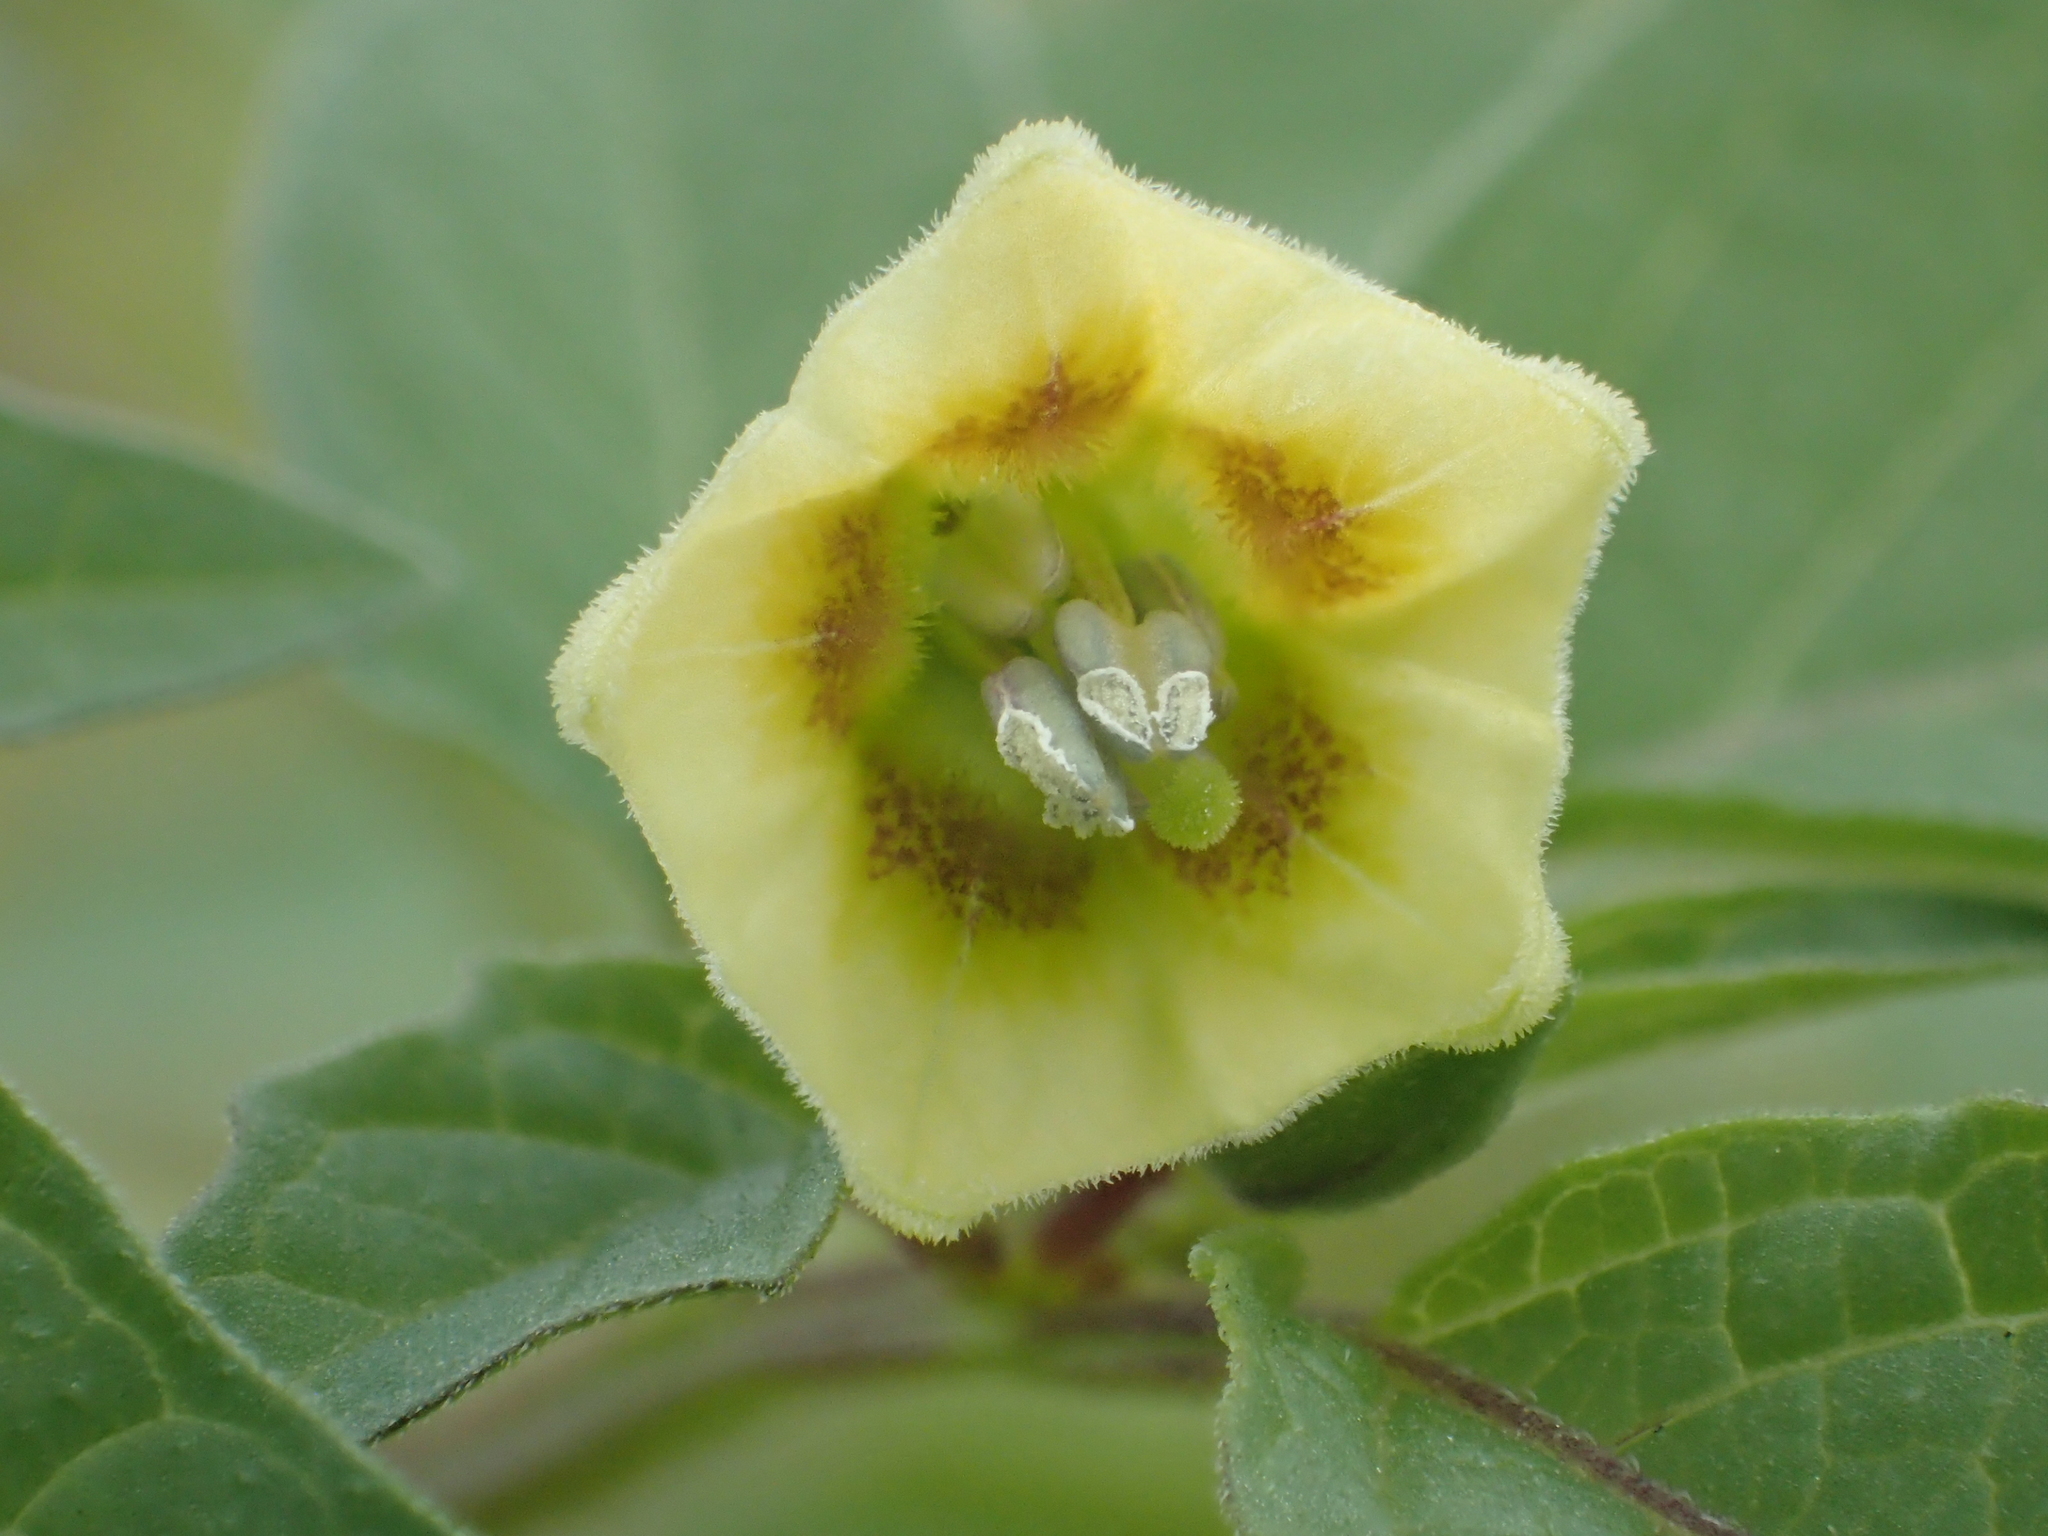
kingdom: Plantae
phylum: Tracheophyta
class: Magnoliopsida
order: Solanales
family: Solanaceae
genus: Physalis
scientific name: Physalis angulata
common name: Angular winter-cherry
